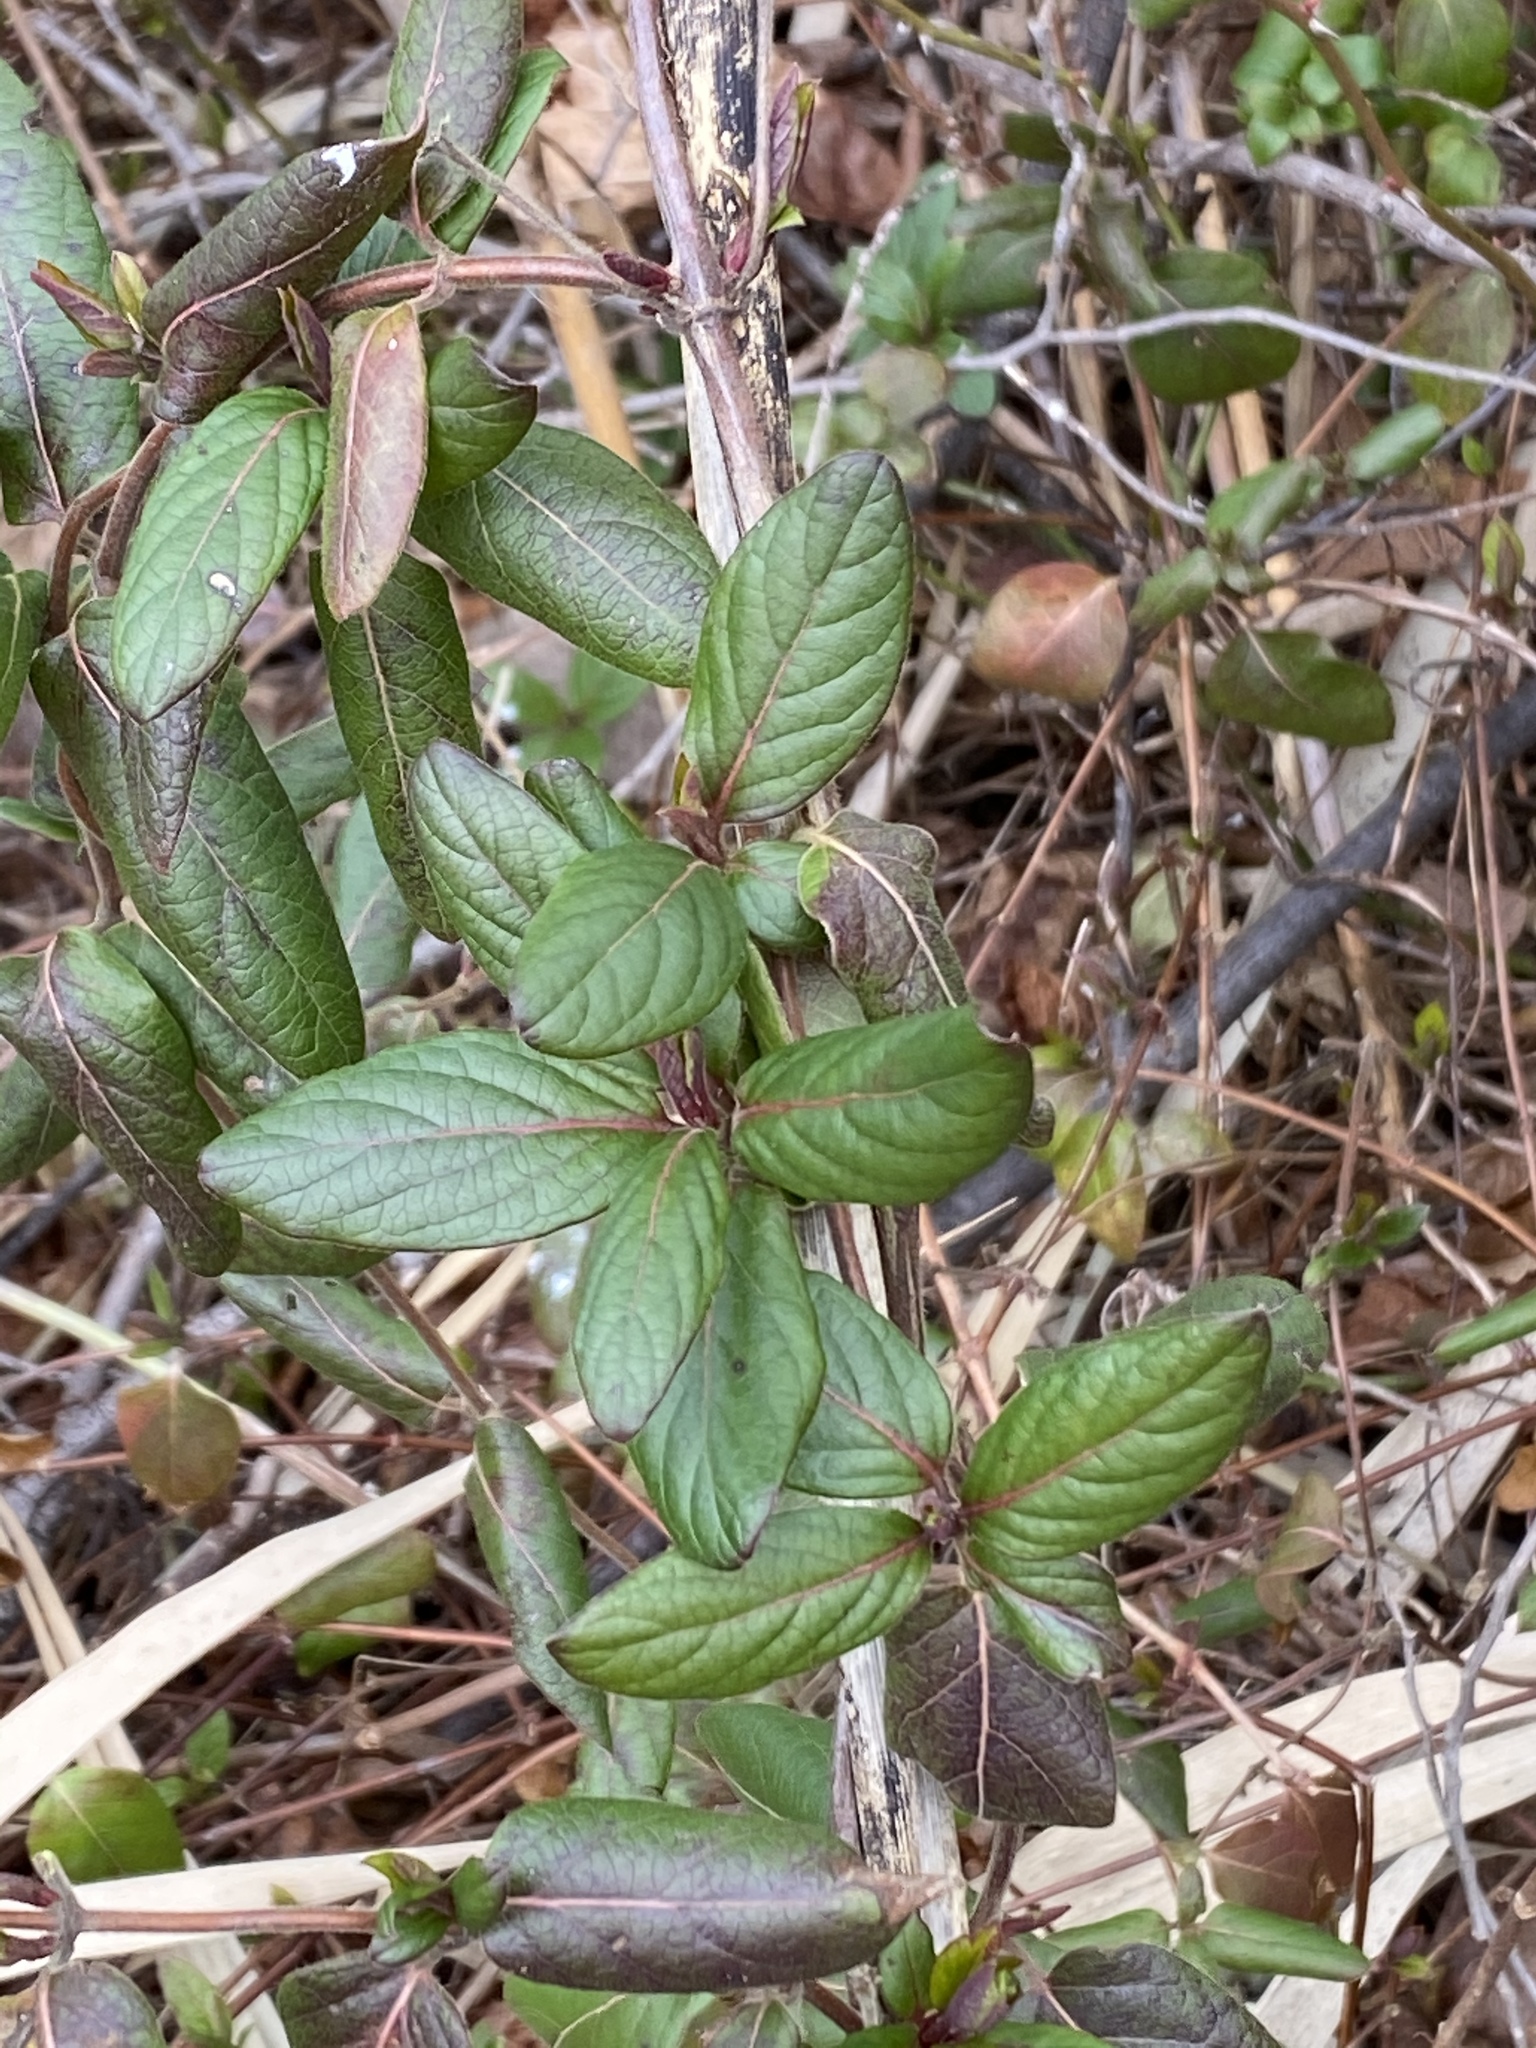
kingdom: Plantae
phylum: Tracheophyta
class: Magnoliopsida
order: Dipsacales
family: Caprifoliaceae
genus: Lonicera
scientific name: Lonicera japonica
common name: Japanese honeysuckle
